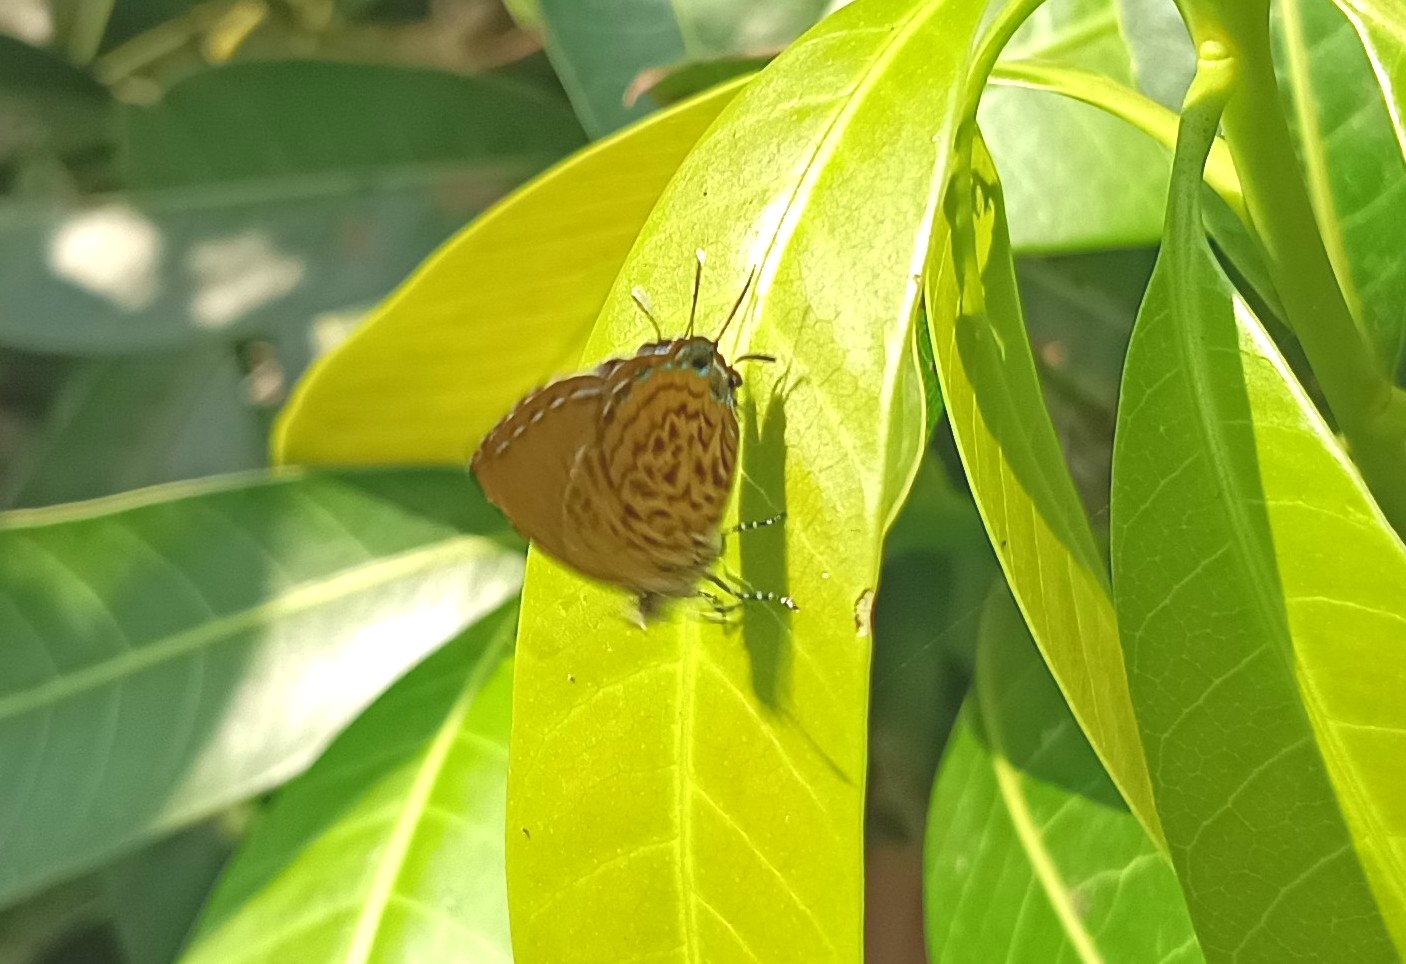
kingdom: Animalia
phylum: Arthropoda
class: Insecta
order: Lepidoptera
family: Lycaenidae
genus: Rathinda
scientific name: Rathinda amor
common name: Monkey puzzle
